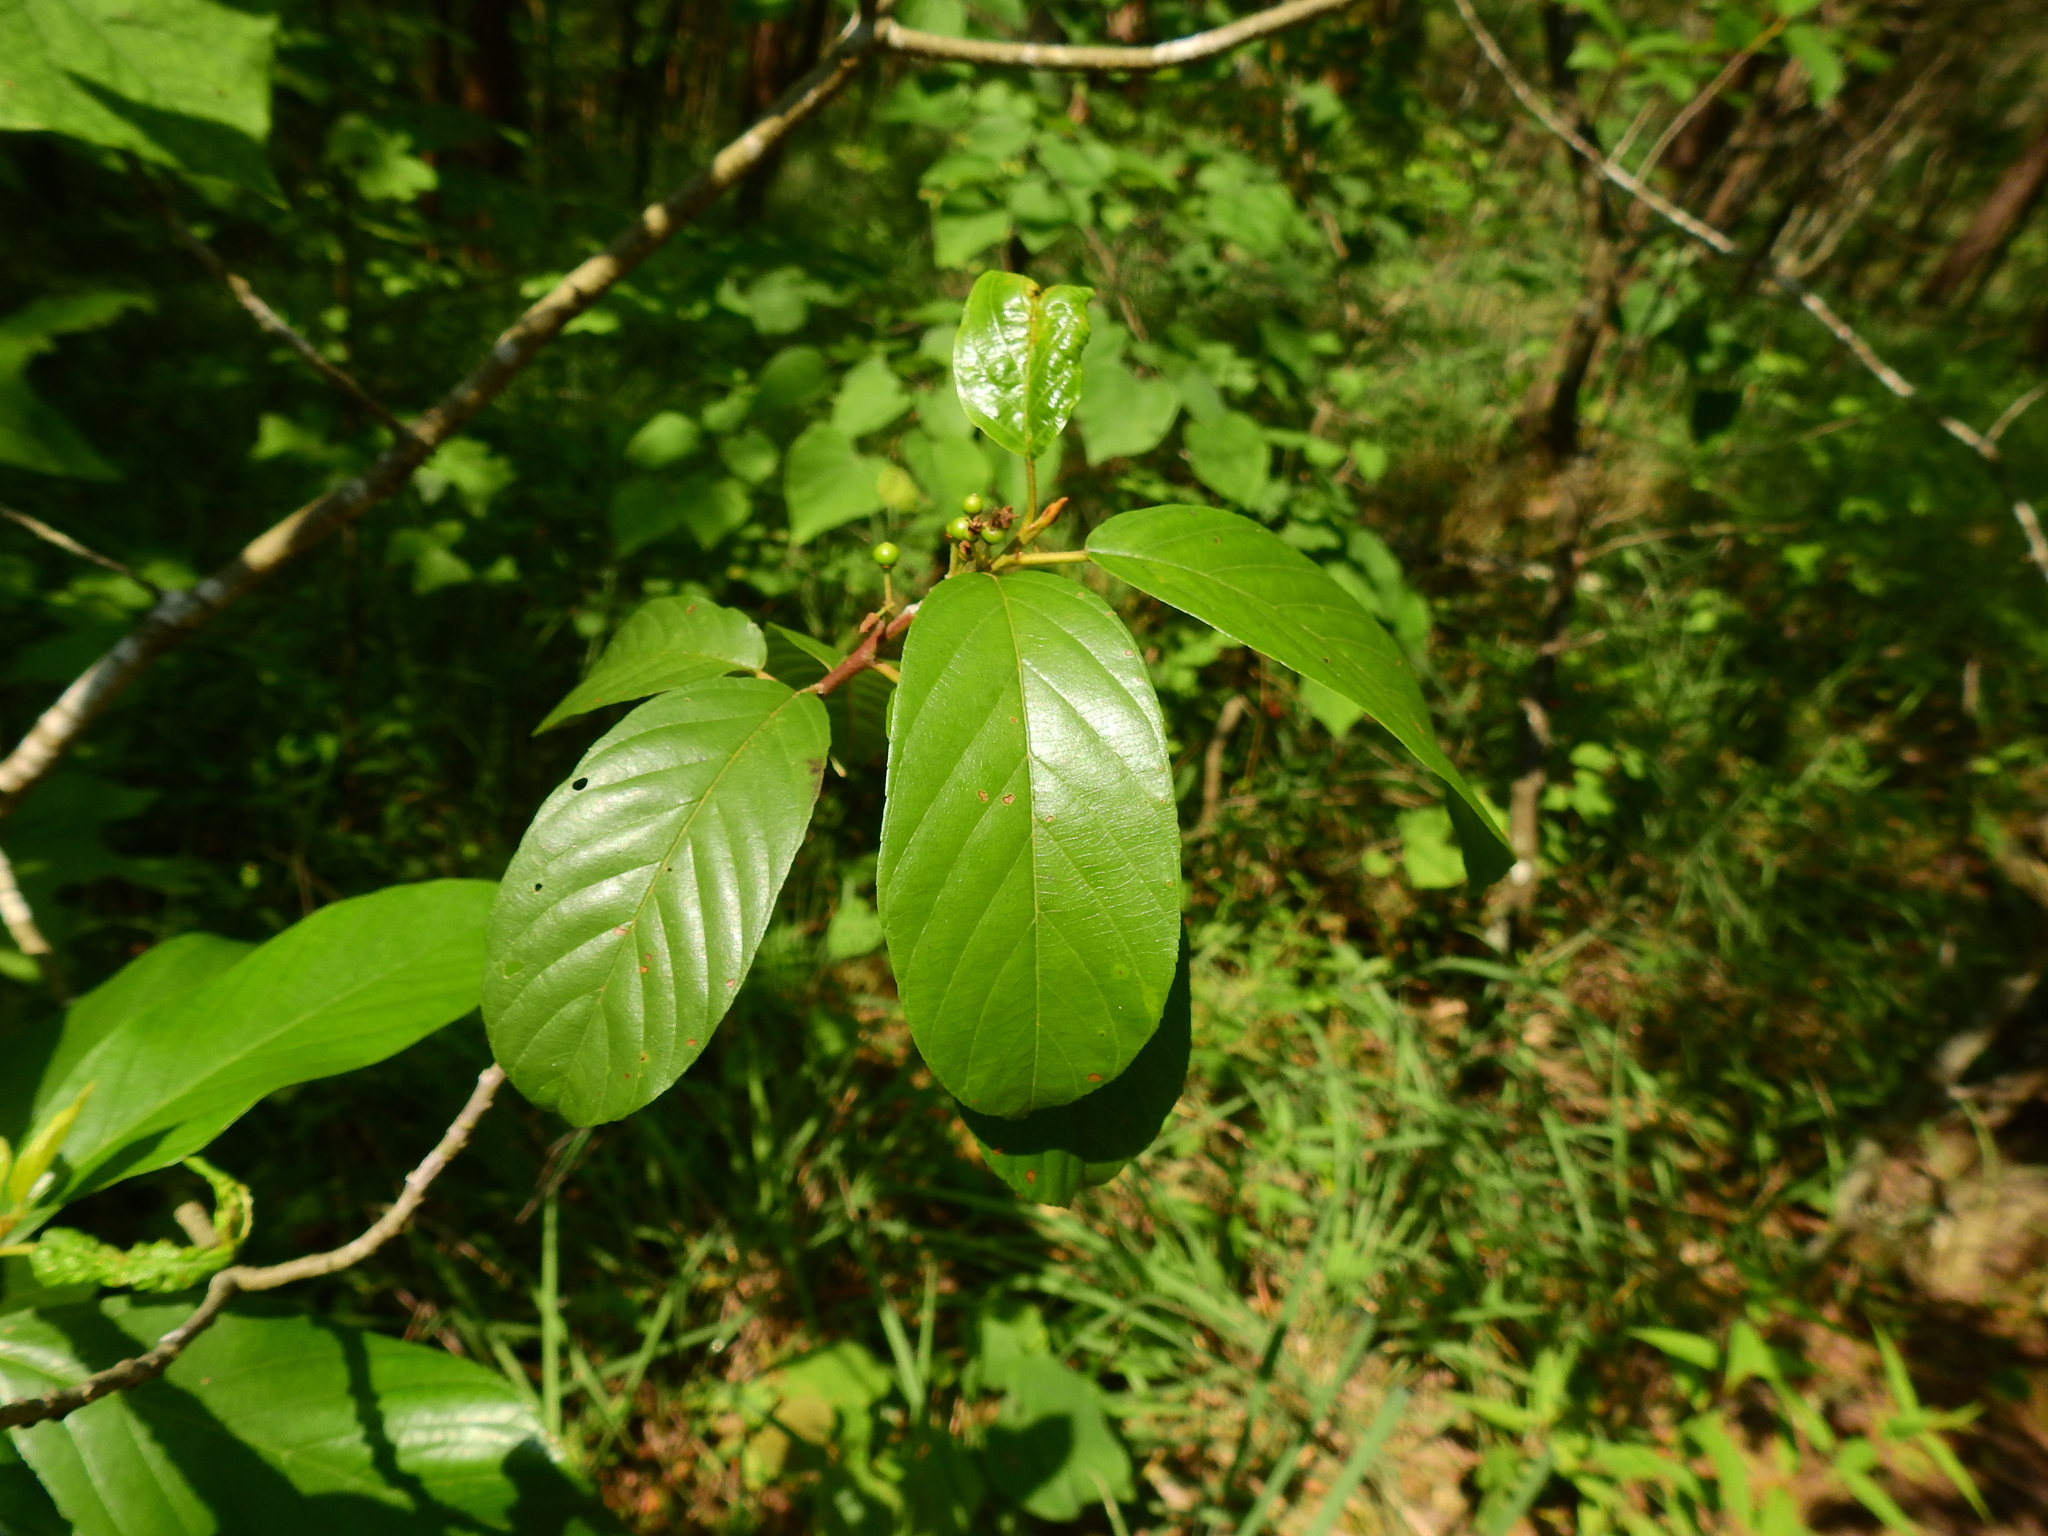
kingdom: Plantae
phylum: Tracheophyta
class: Magnoliopsida
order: Rosales
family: Rhamnaceae
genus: Frangula
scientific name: Frangula caroliniana
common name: Carolina buckthorn
